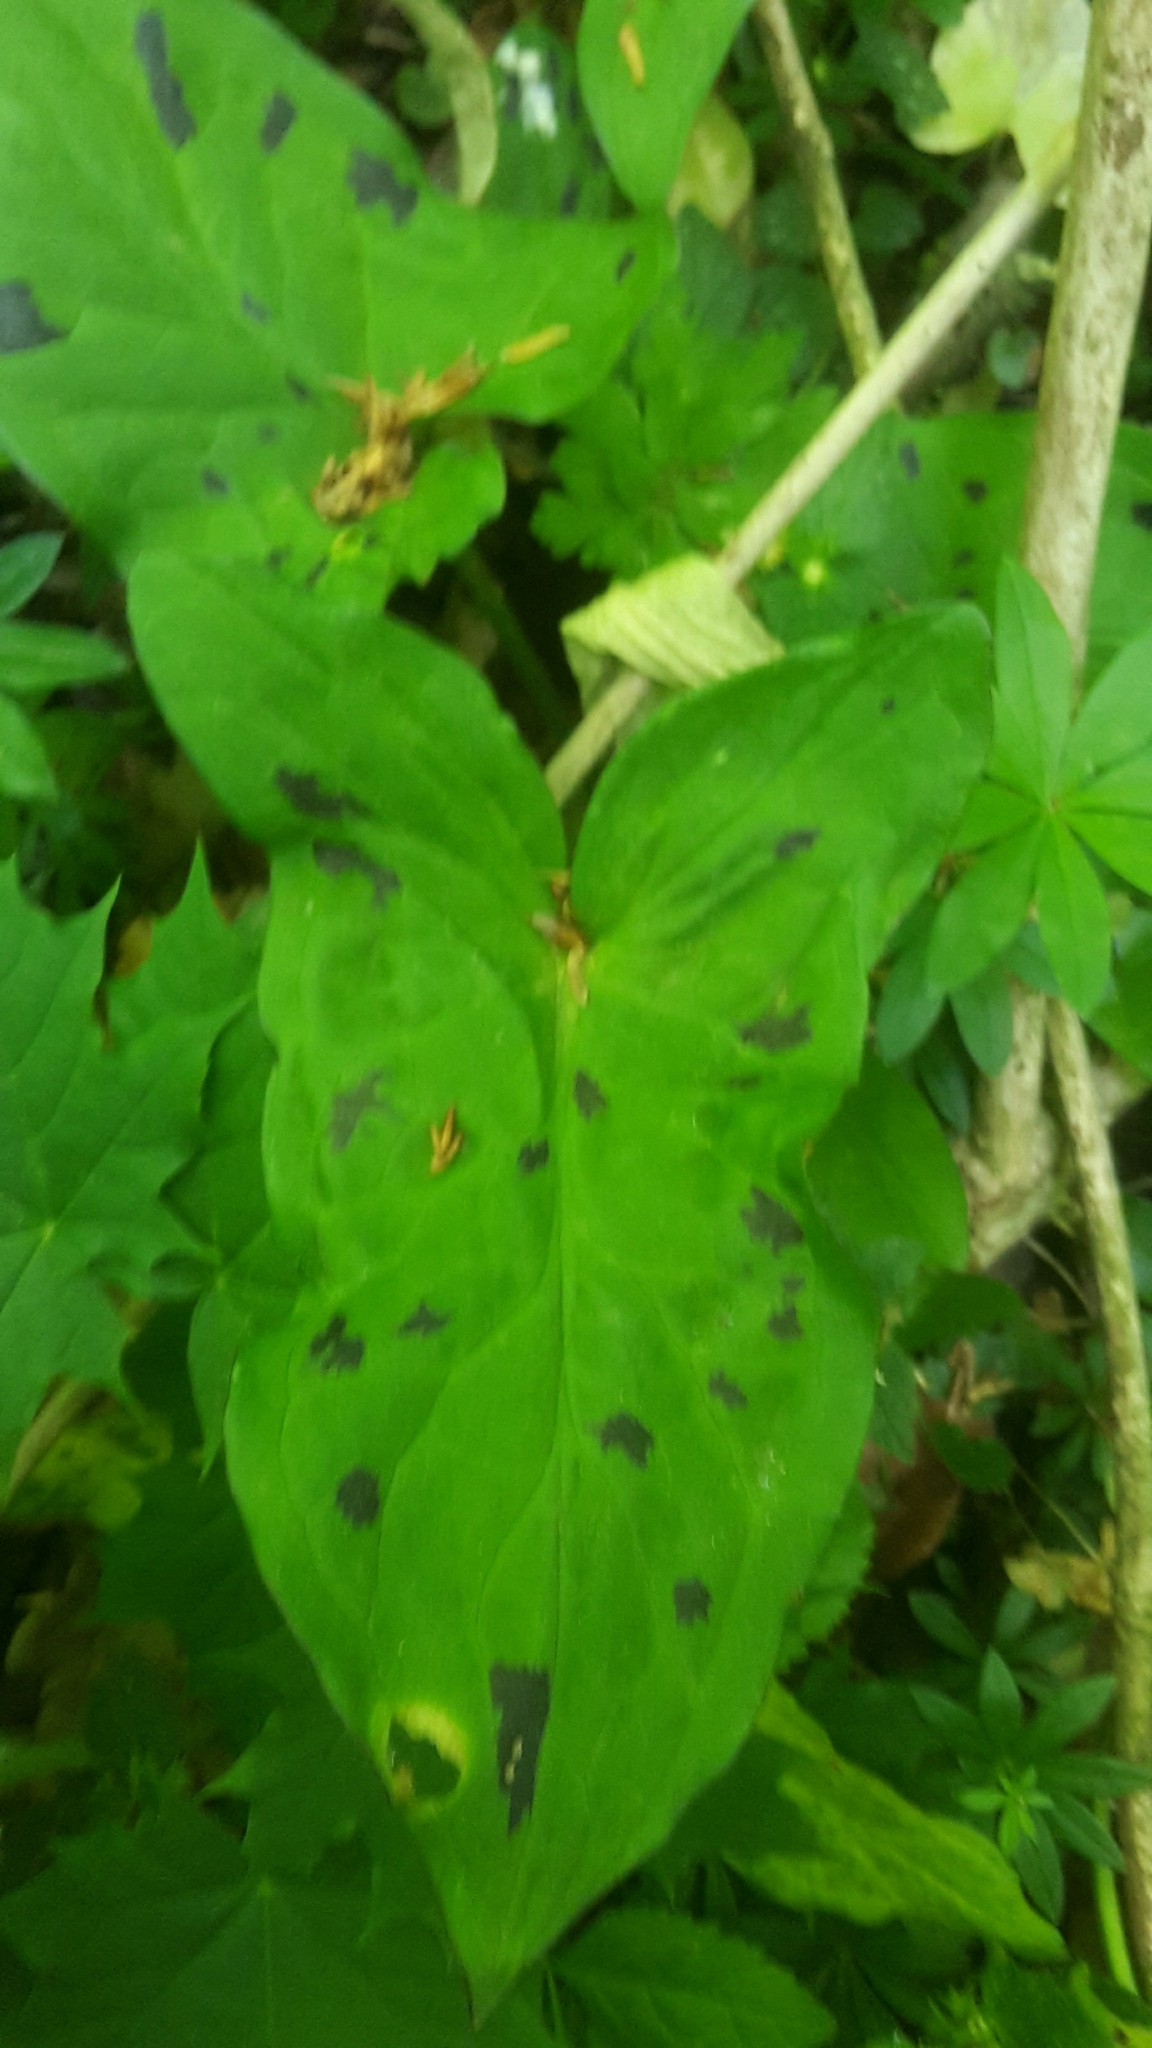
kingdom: Plantae
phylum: Tracheophyta
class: Liliopsida
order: Alismatales
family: Araceae
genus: Arum
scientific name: Arum maculatum
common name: Lords-and-ladies
